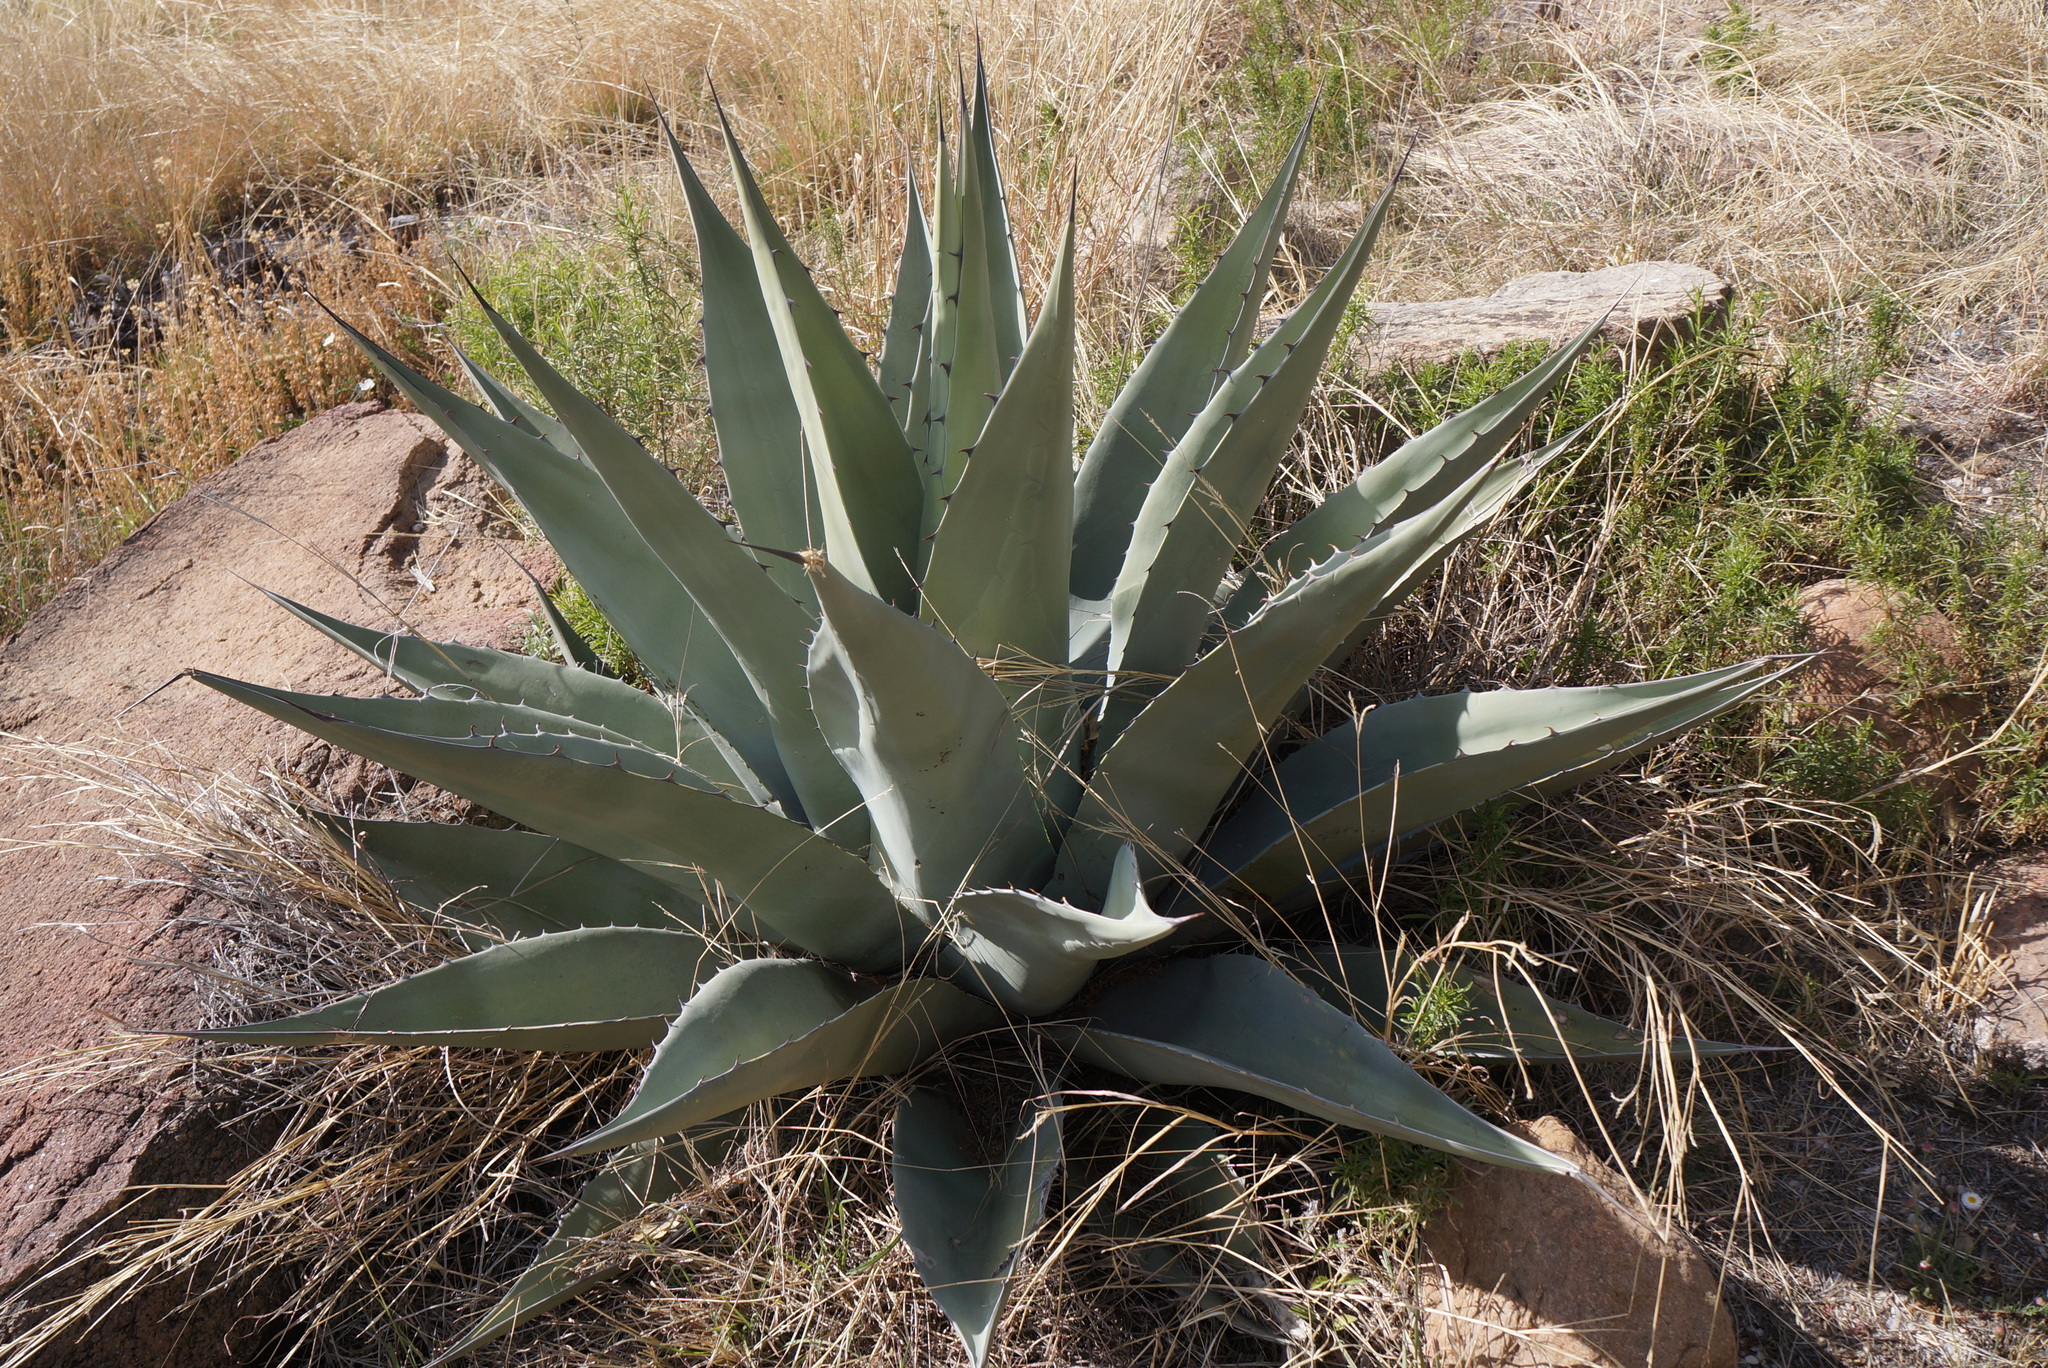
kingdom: Plantae
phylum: Tracheophyta
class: Liliopsida
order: Asparagales
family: Asparagaceae
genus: Agave
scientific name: Agave havardiana
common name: Havard agave
